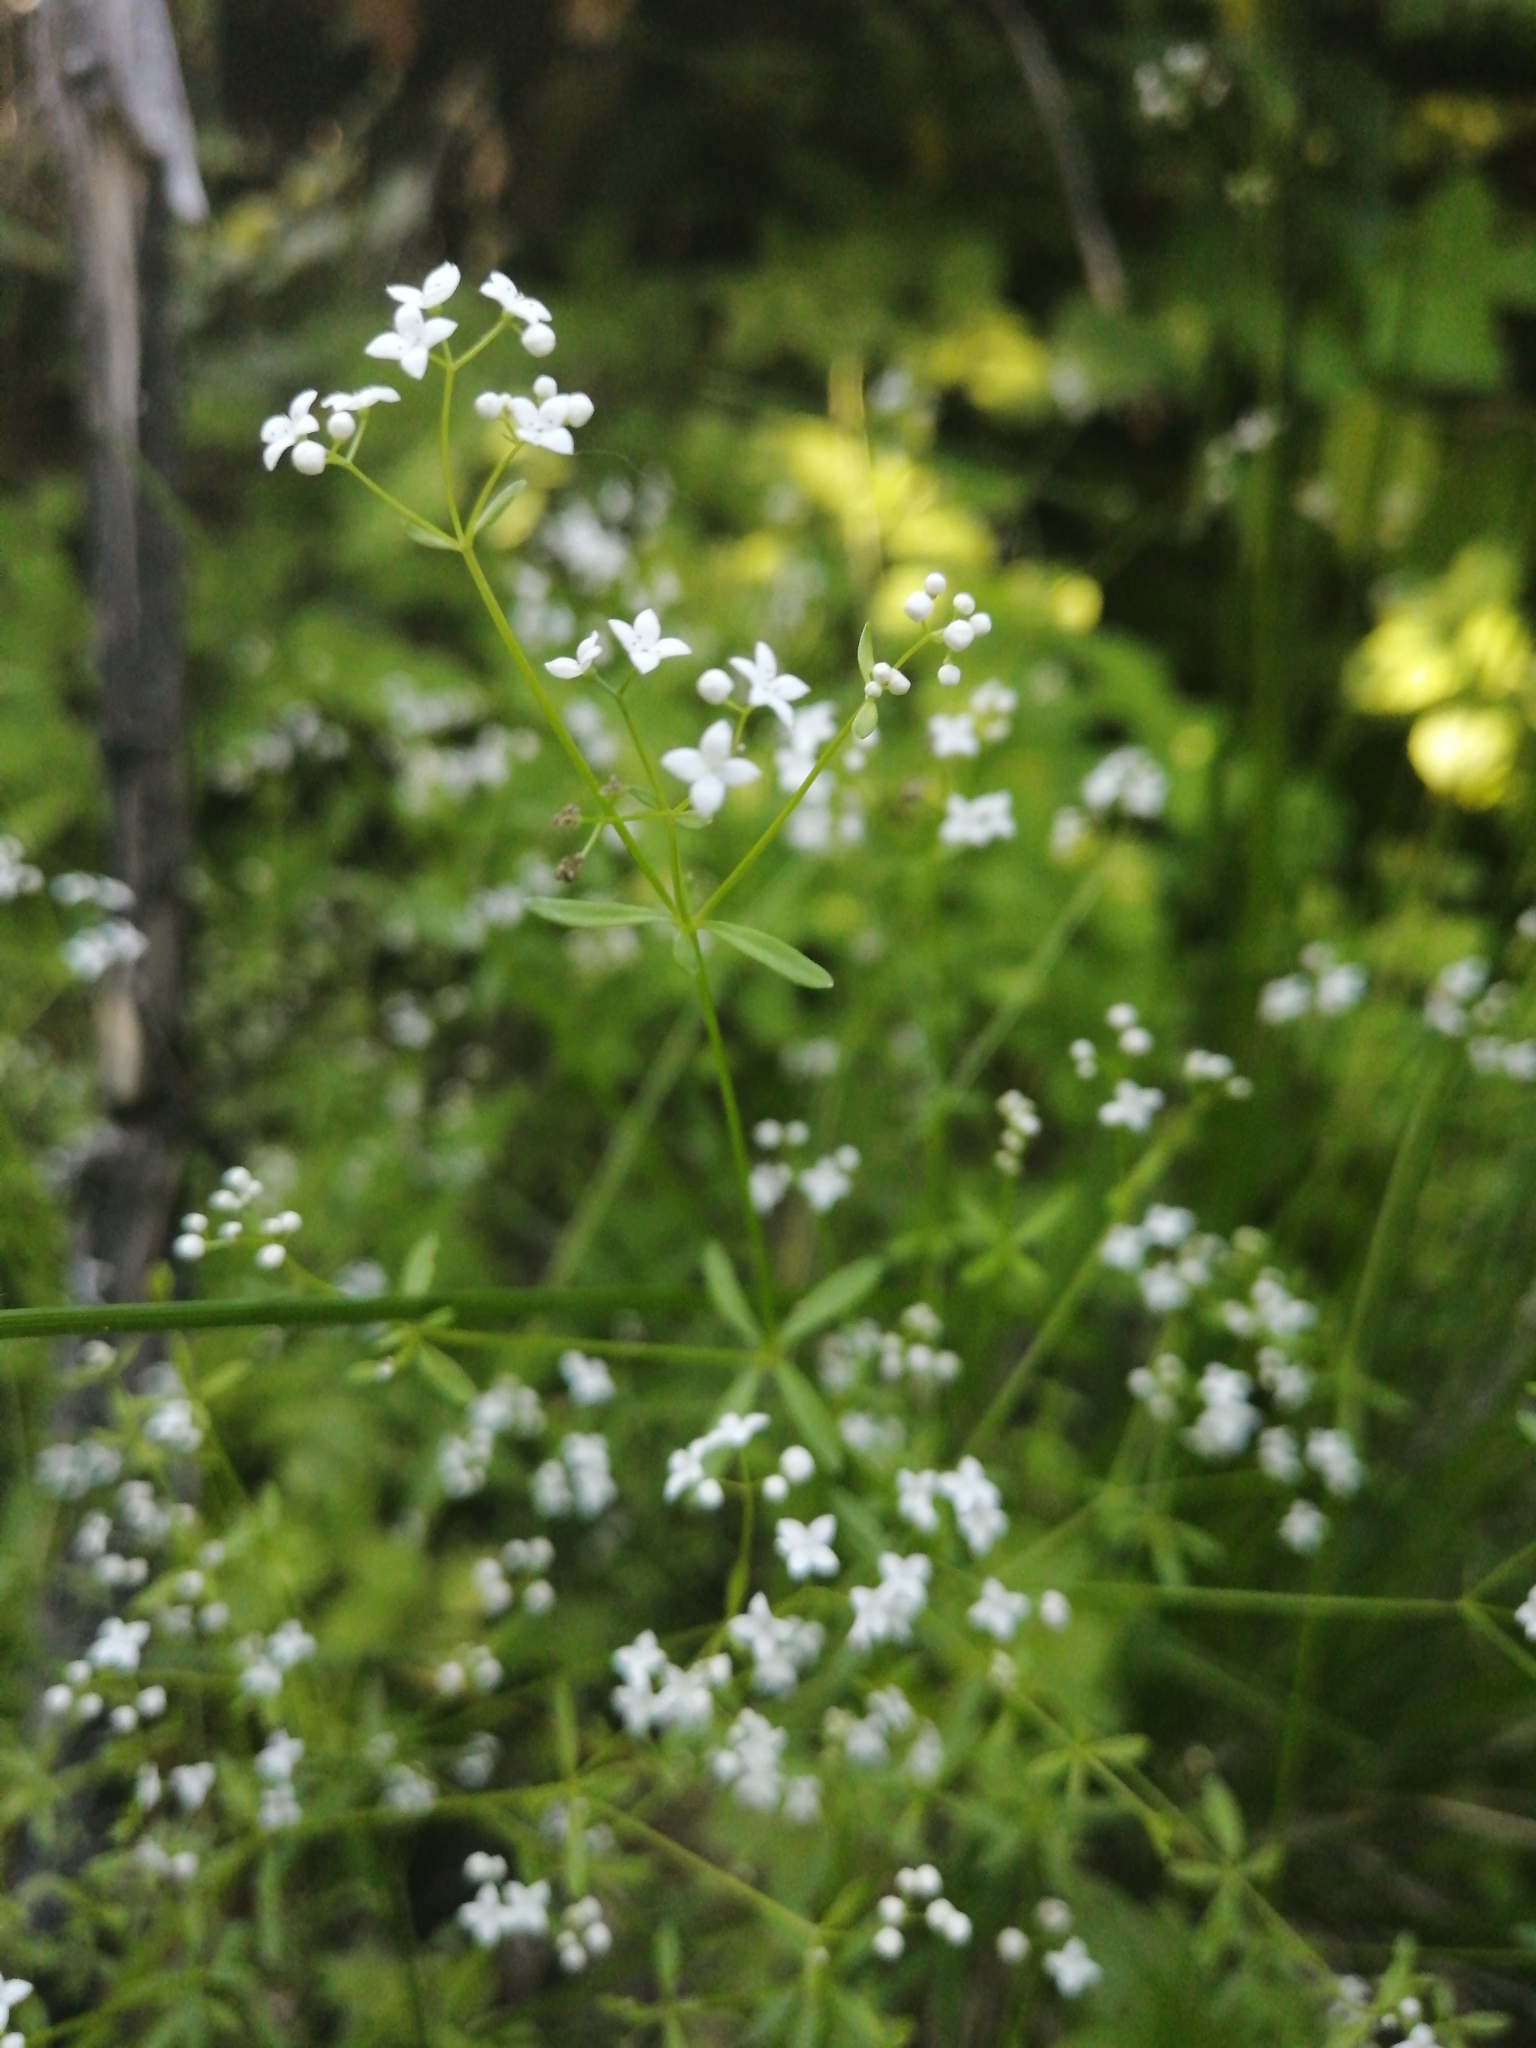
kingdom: Plantae
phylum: Tracheophyta
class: Magnoliopsida
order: Gentianales
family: Rubiaceae
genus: Galium
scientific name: Galium palustre
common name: Common marsh-bedstraw
